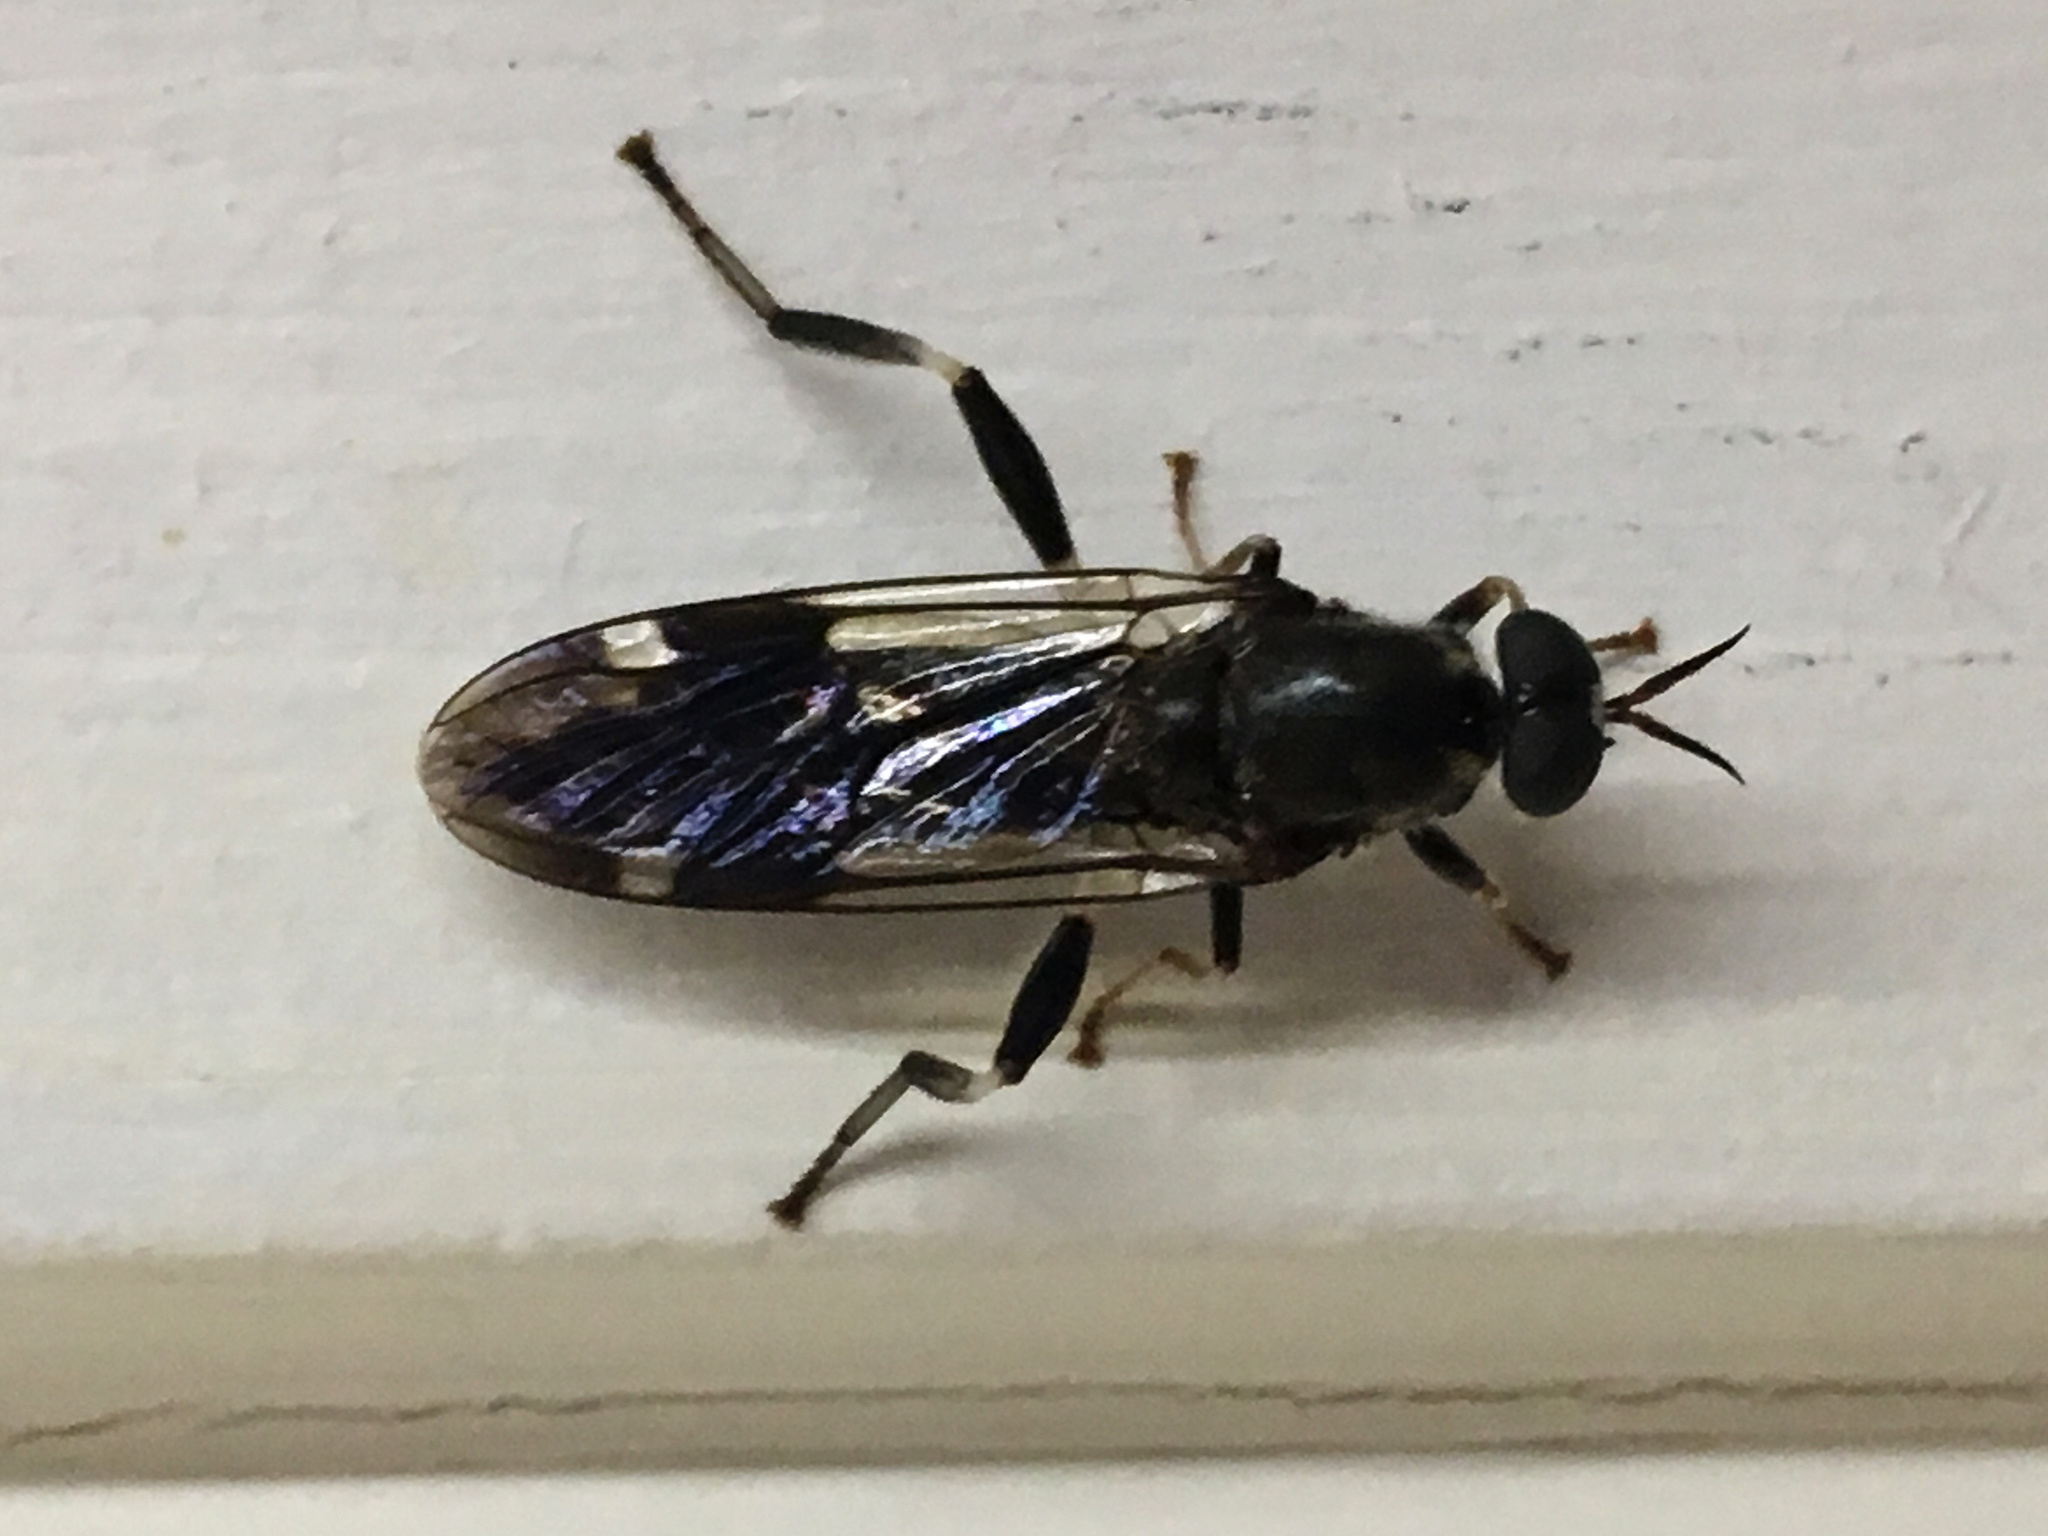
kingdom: Animalia
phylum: Arthropoda
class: Insecta
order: Diptera
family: Stratiomyidae
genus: Exaireta
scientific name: Exaireta spinigera
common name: Blue soldier fly
